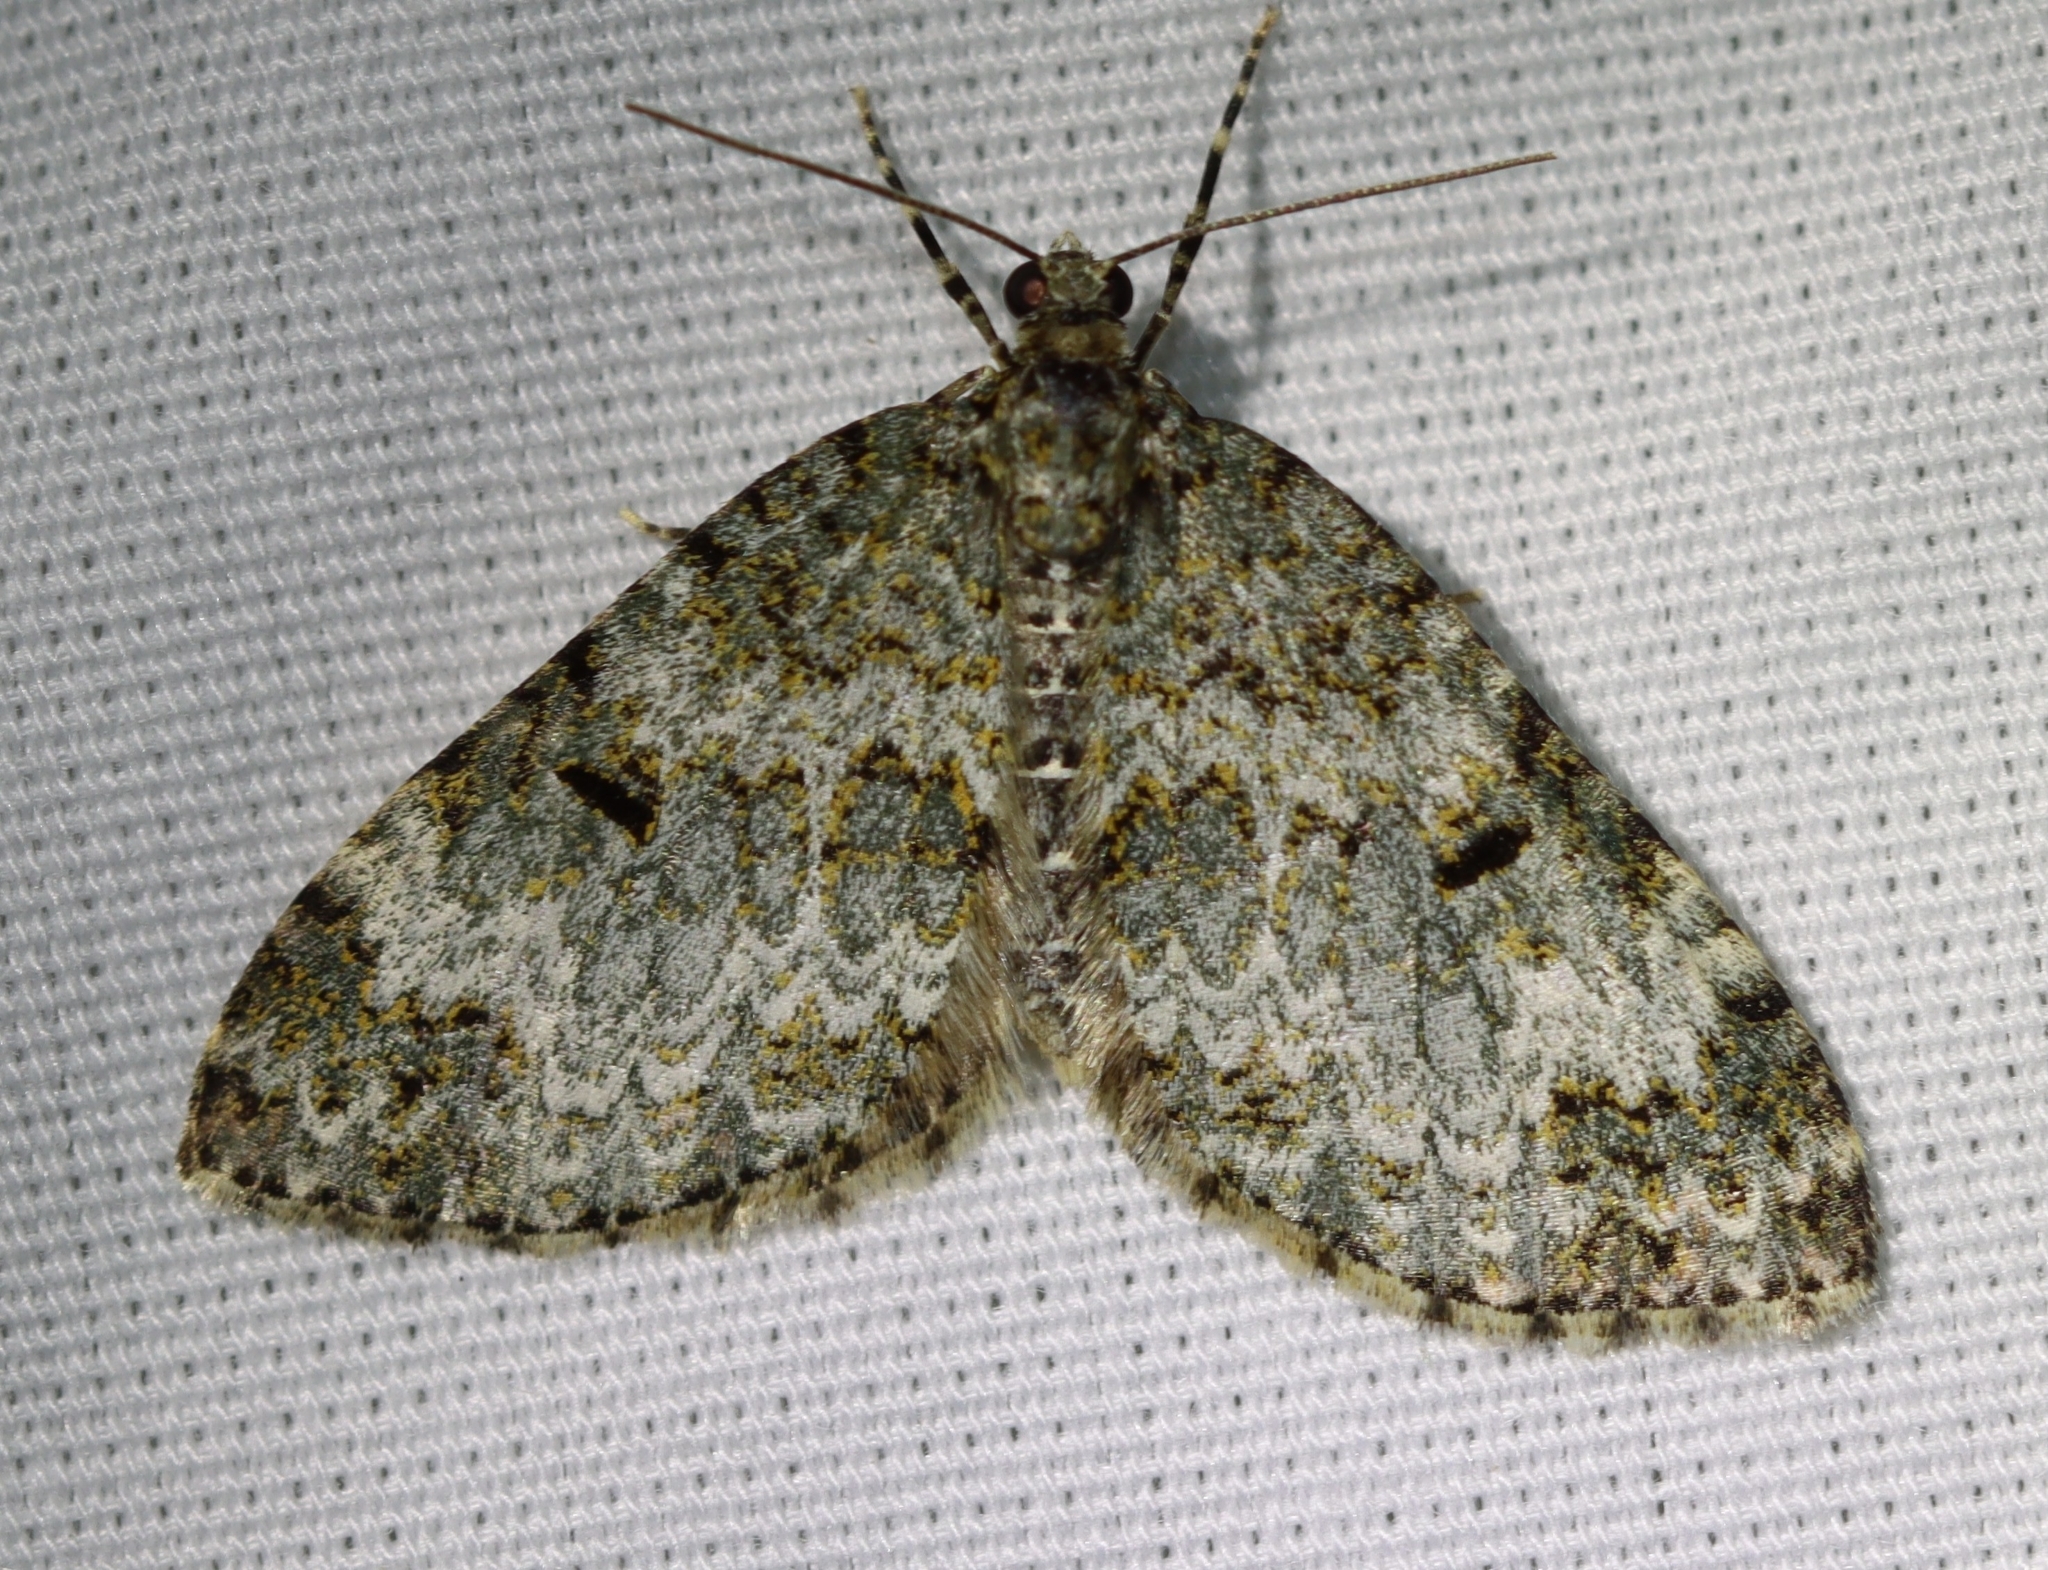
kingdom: Animalia
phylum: Arthropoda
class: Insecta
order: Lepidoptera
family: Geometridae
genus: Spargania
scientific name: Spargania magnoliata
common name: Double-banded carpet
